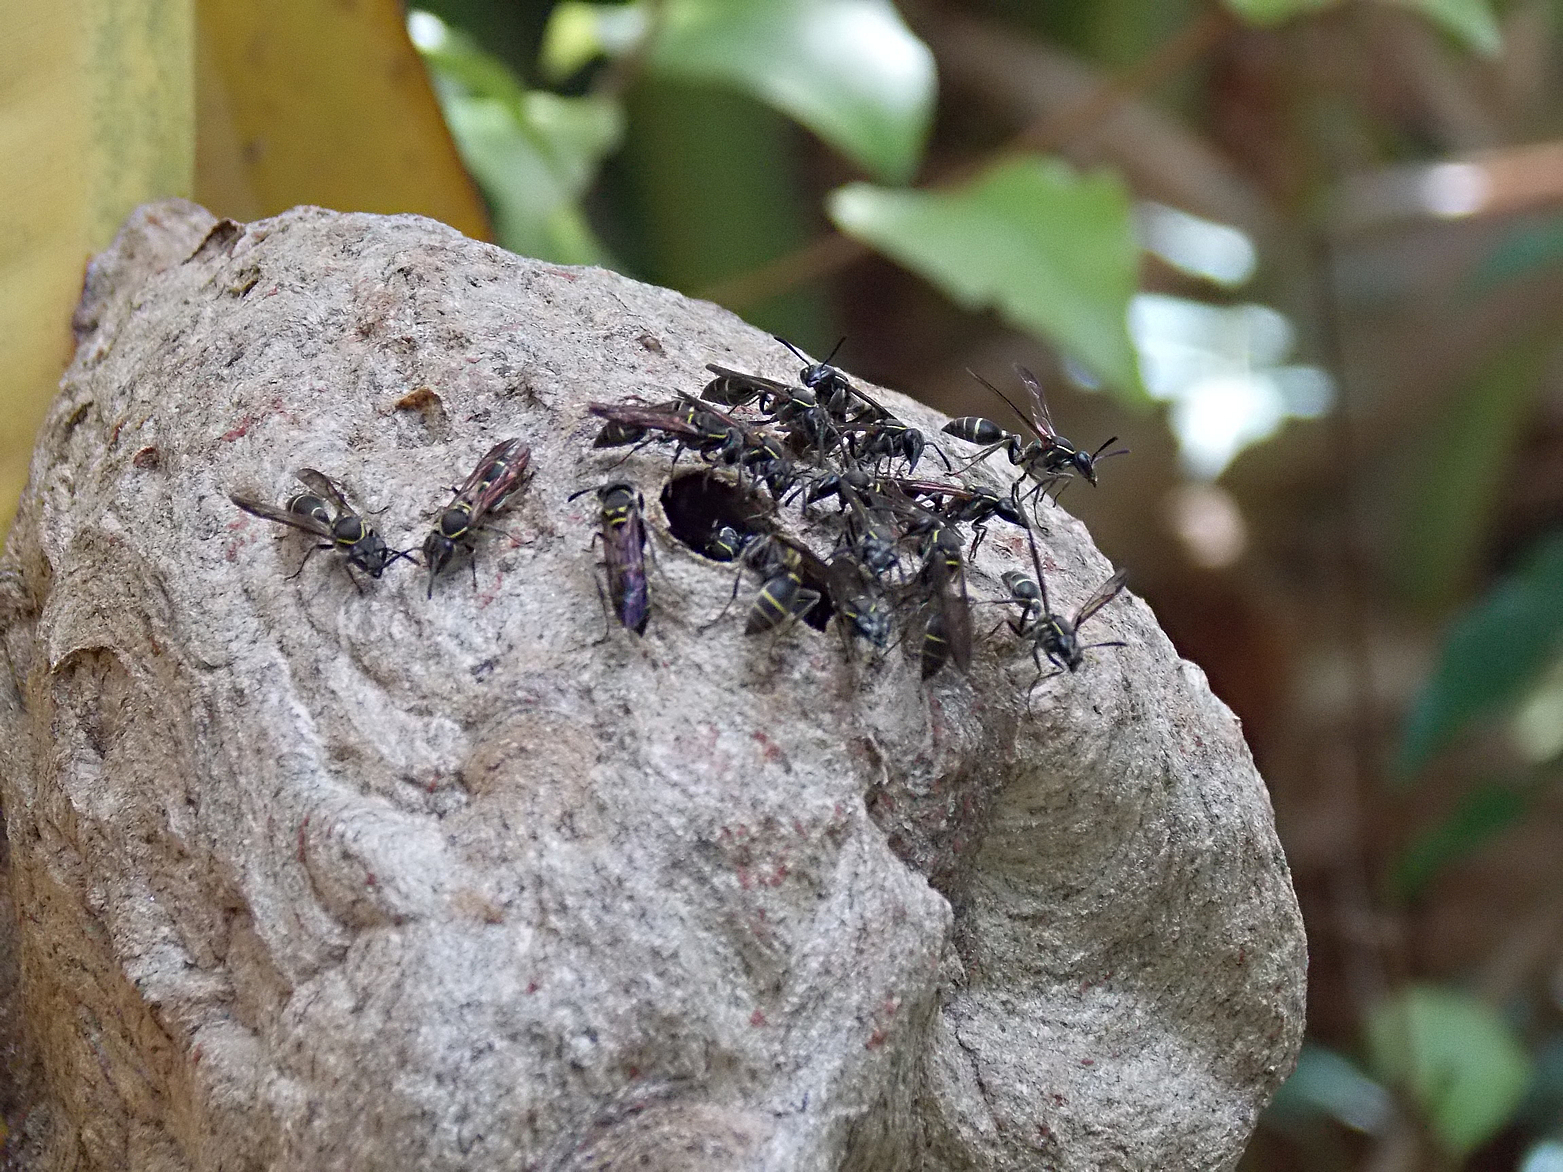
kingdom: Animalia
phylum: Arthropoda
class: Insecta
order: Hymenoptera
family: Eumenidae
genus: Polybia
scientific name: Polybia platycephala
